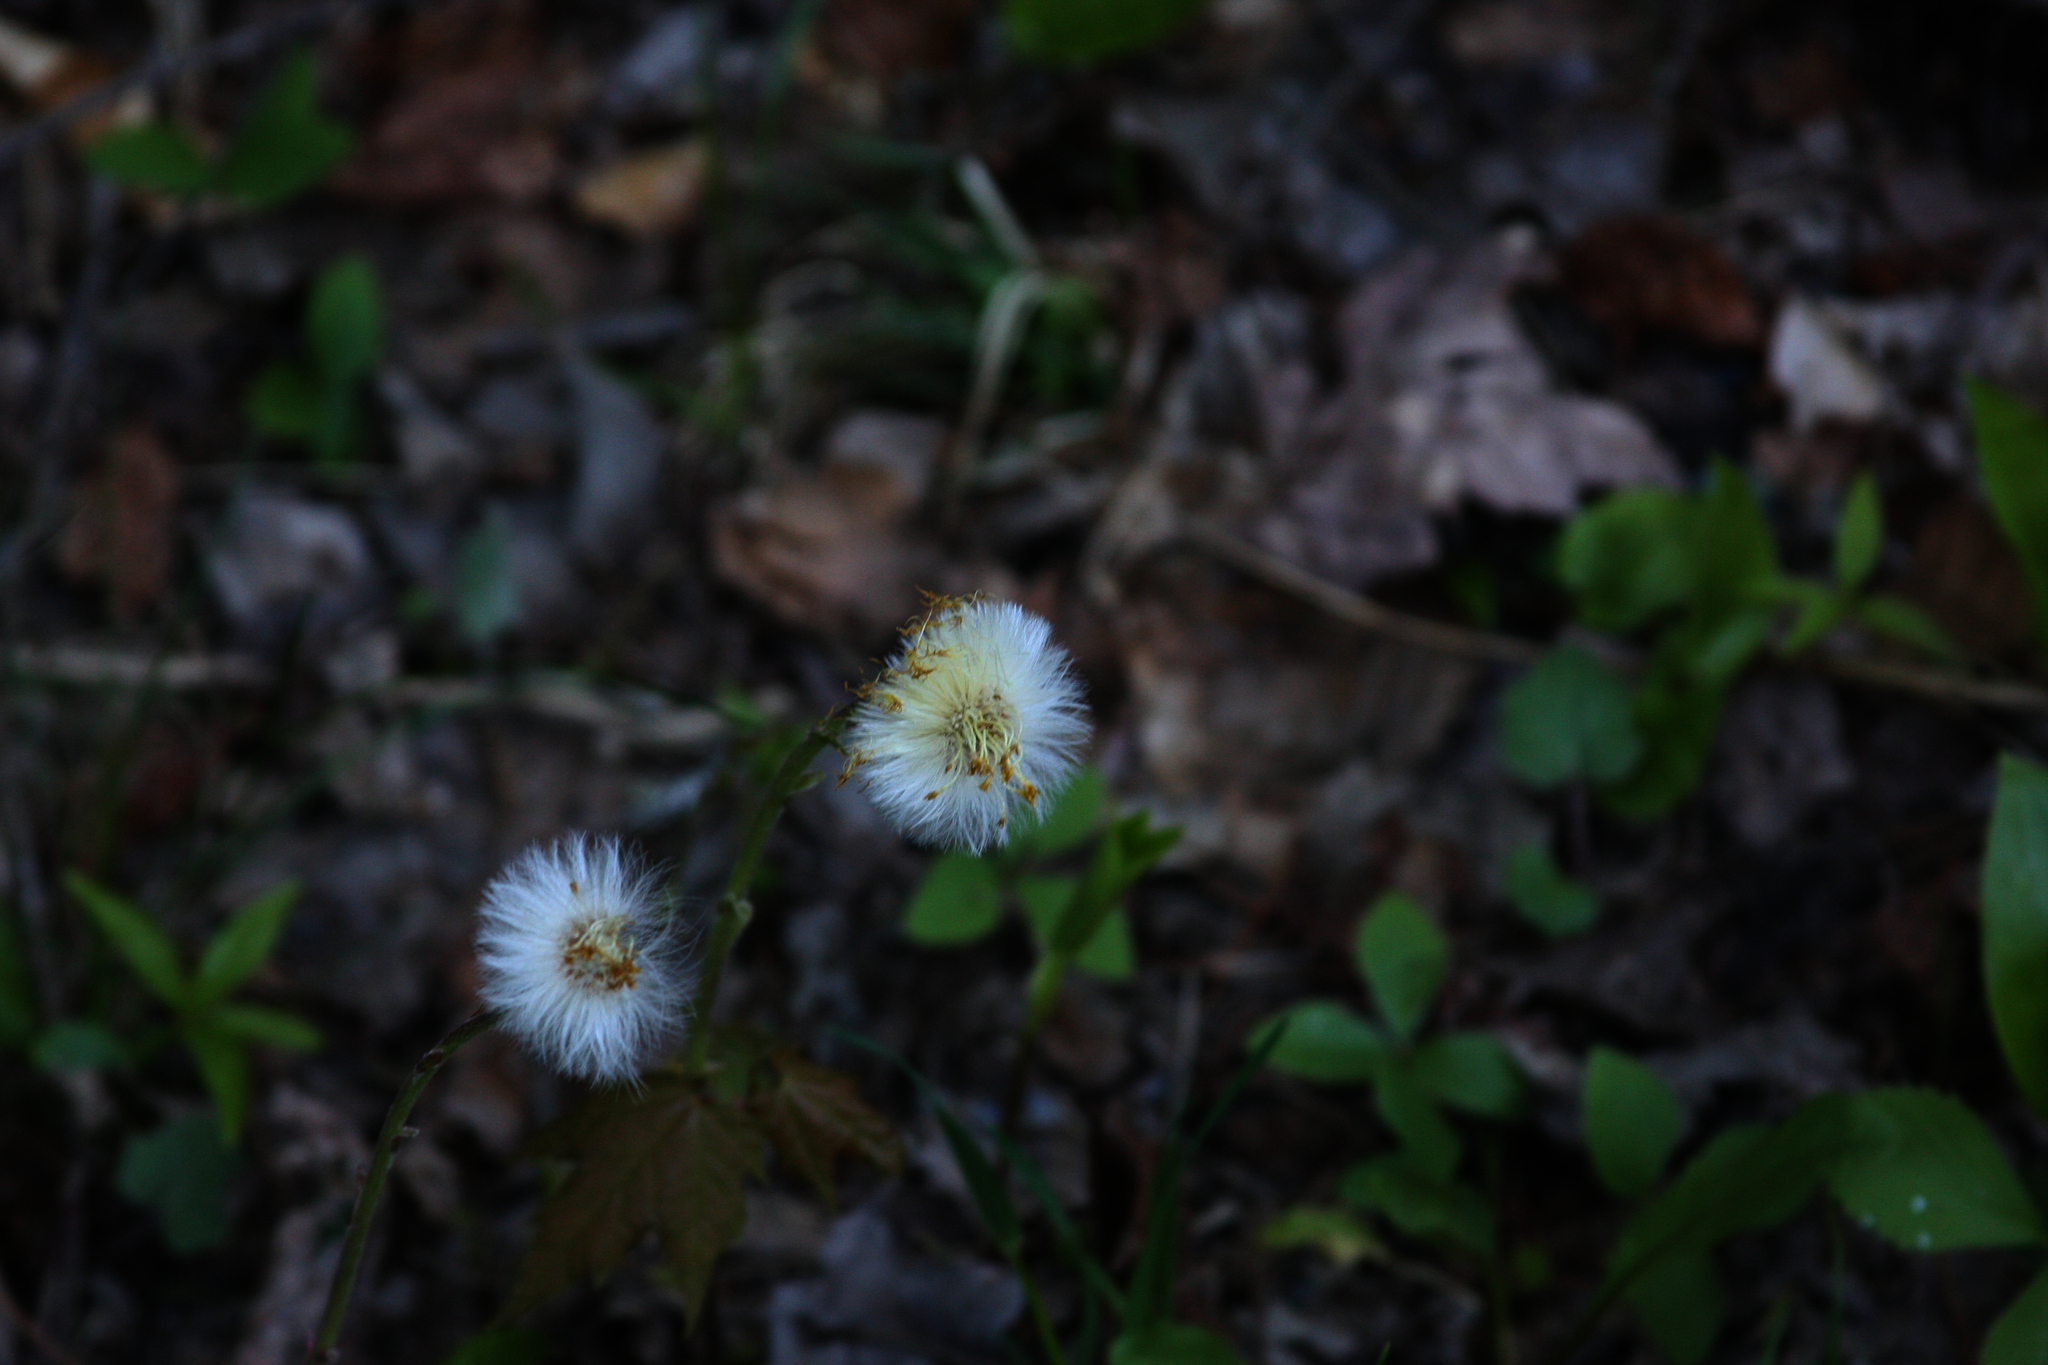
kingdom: Plantae
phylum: Tracheophyta
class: Magnoliopsida
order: Asterales
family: Asteraceae
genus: Tussilago
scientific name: Tussilago farfara
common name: Coltsfoot
